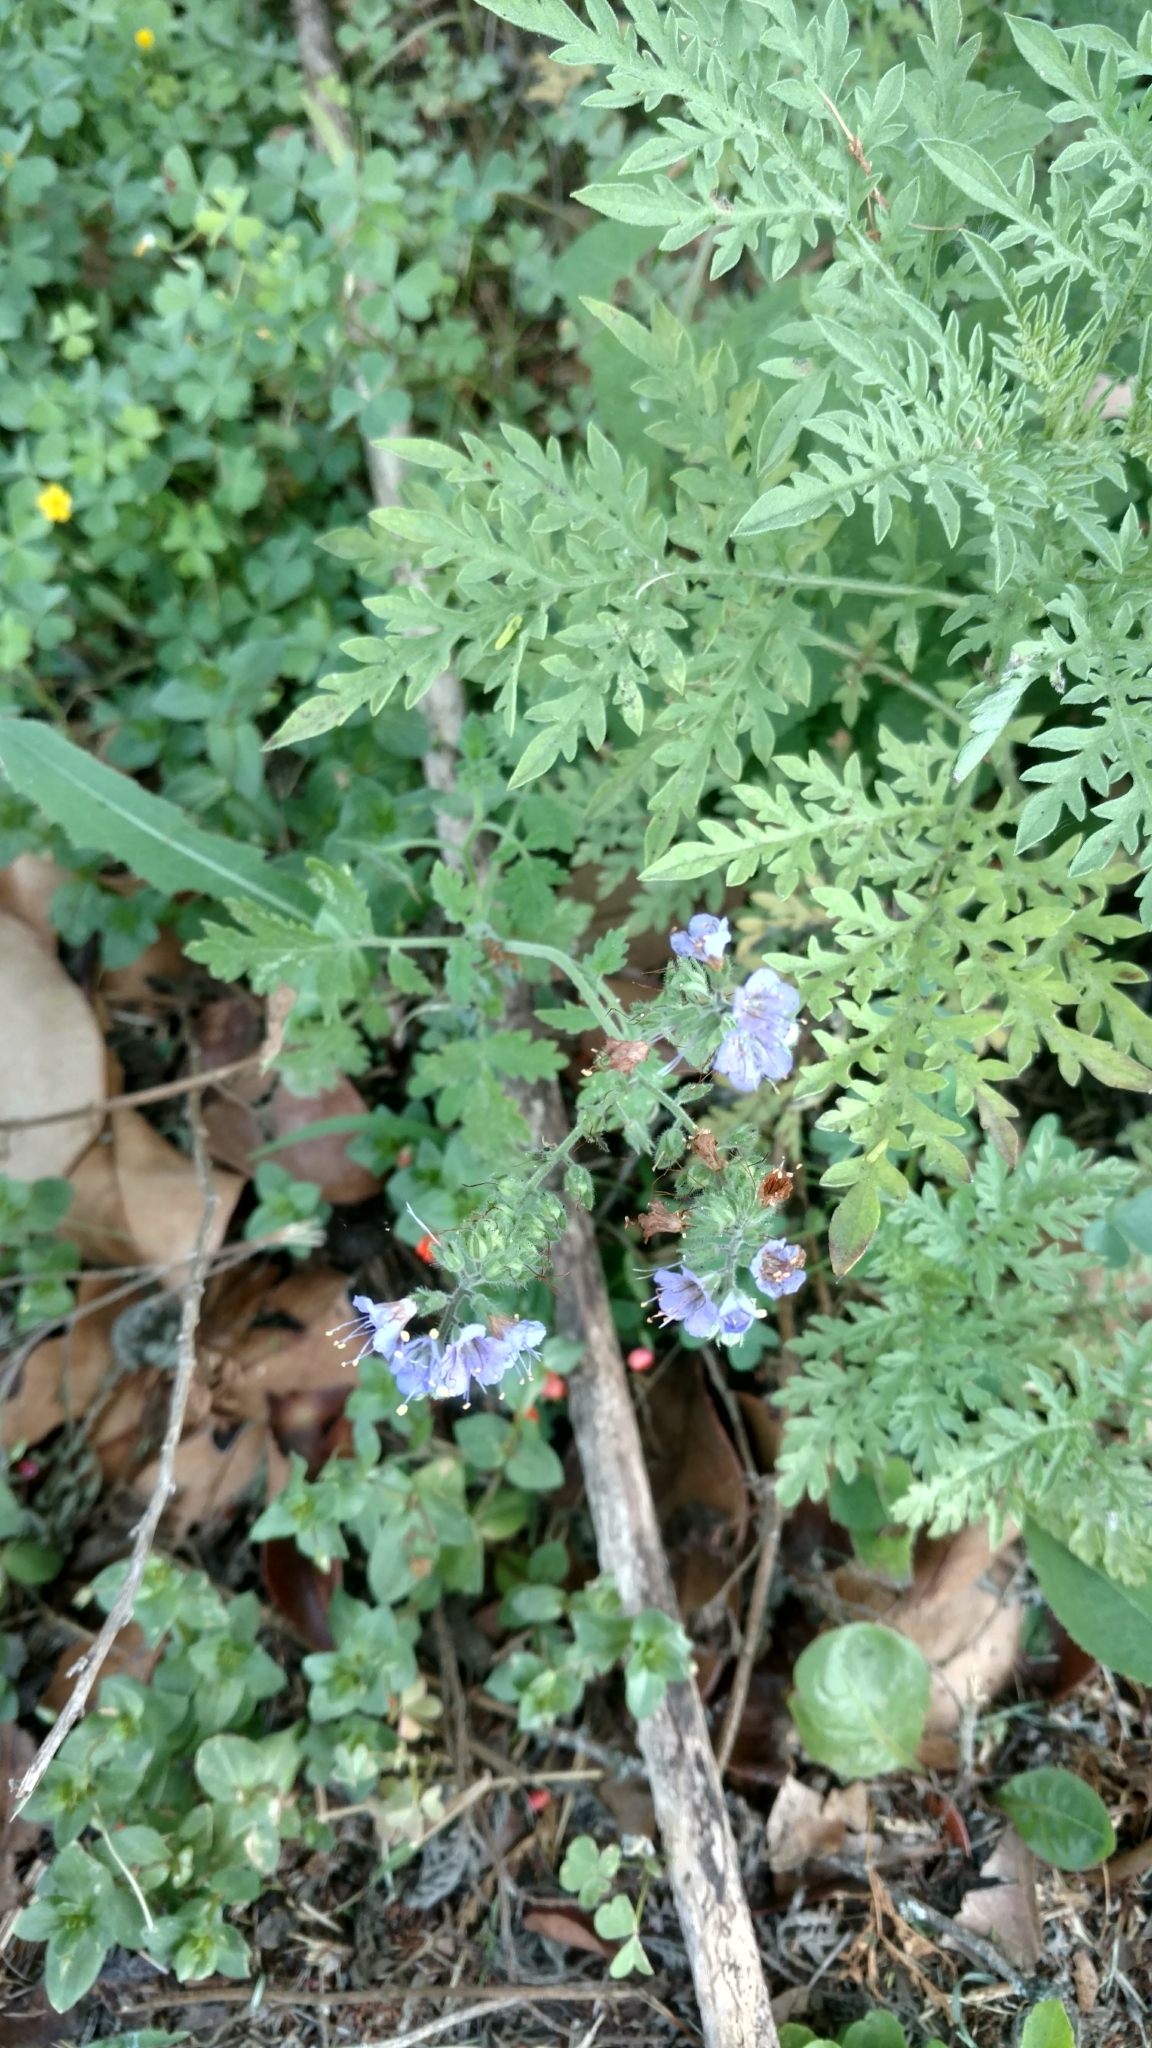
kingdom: Plantae
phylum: Tracheophyta
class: Magnoliopsida
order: Boraginales
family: Hydrophyllaceae
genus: Phacelia
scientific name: Phacelia congesta
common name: Blue curls
